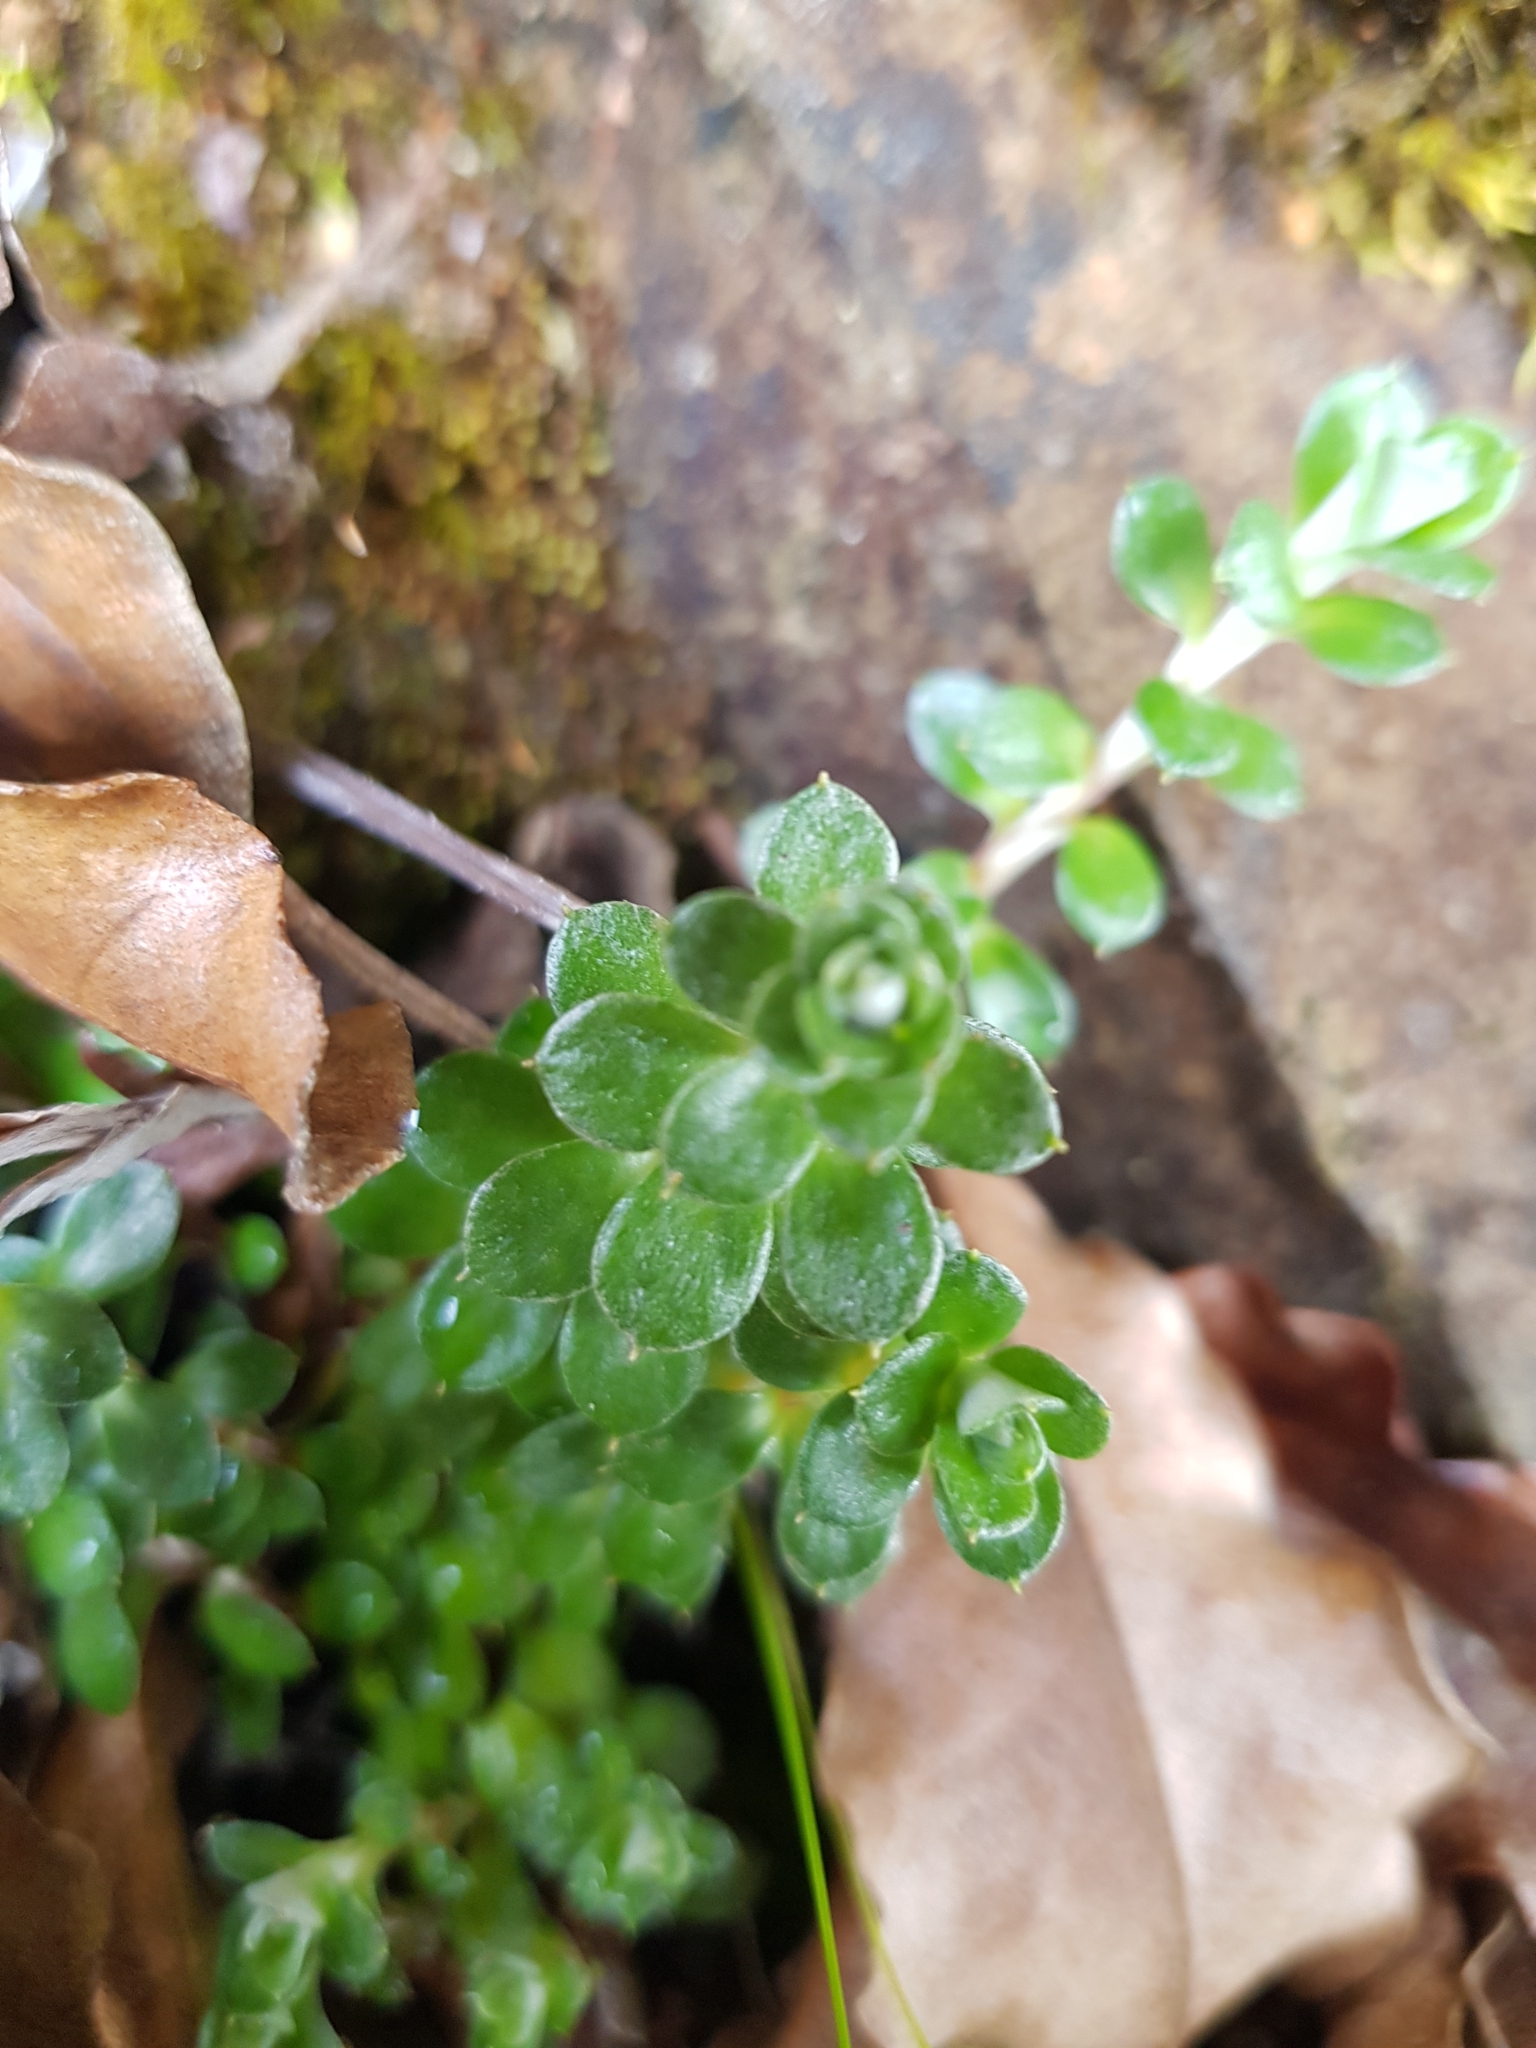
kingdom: Plantae
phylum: Tracheophyta
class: Magnoliopsida
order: Asterales
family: Asteraceae
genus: Anaphalioides
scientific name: Anaphalioides alpina
